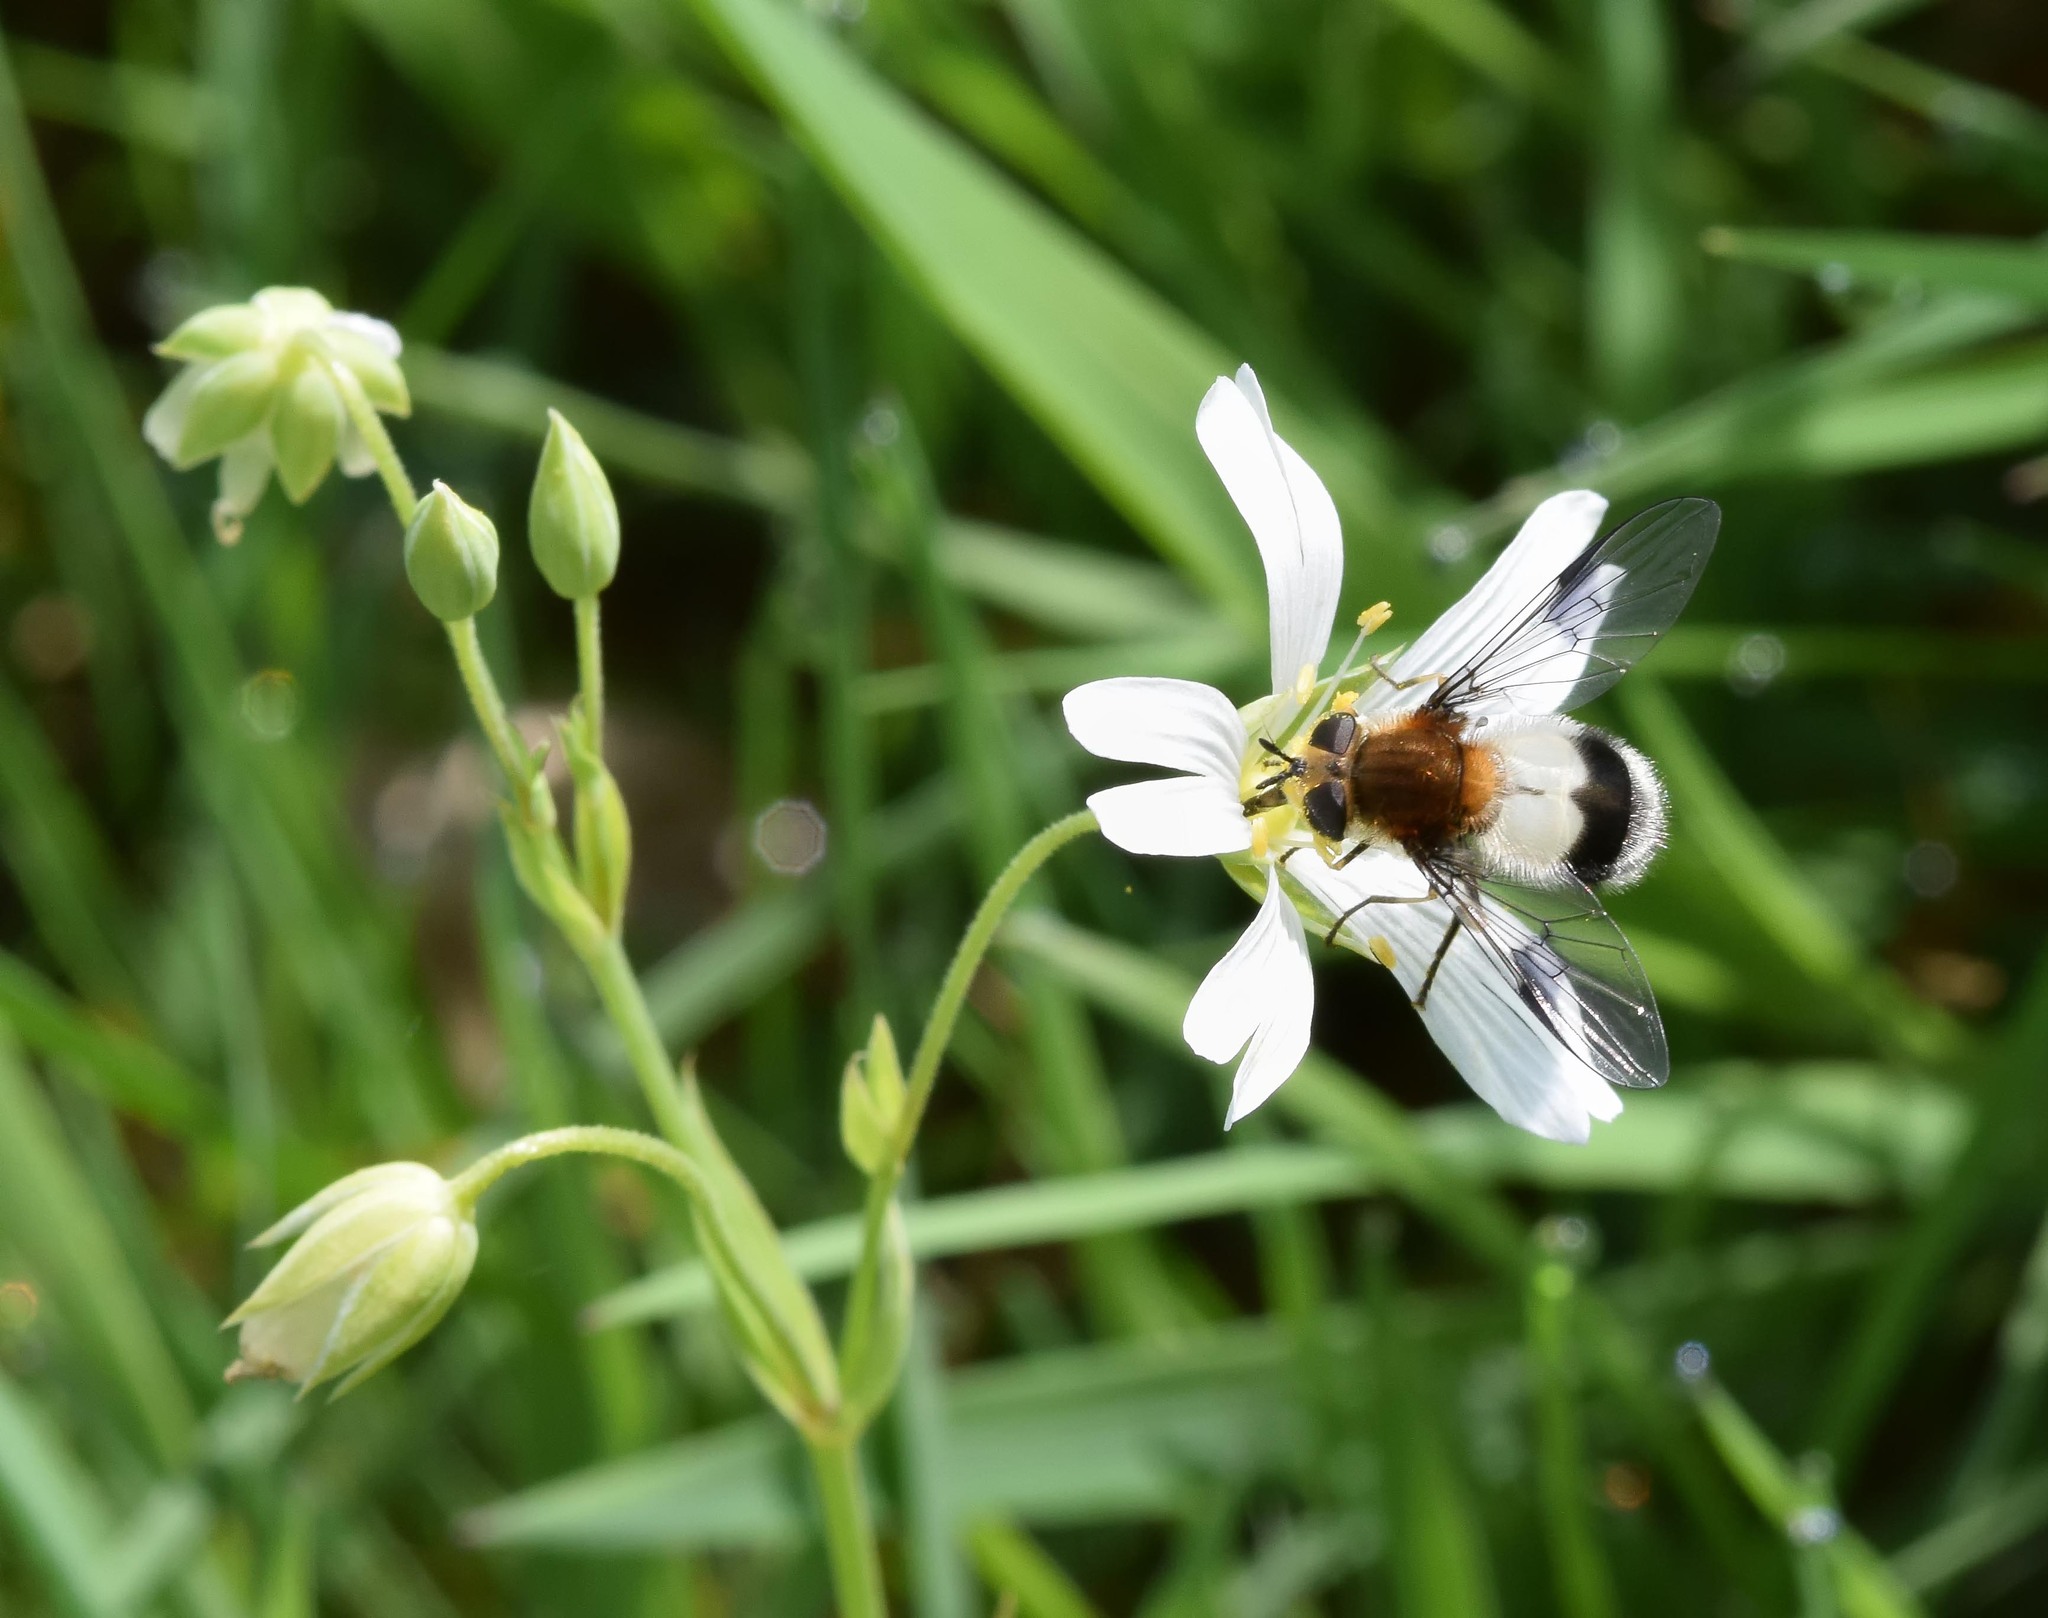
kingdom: Animalia
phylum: Arthropoda
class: Insecta
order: Diptera
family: Syrphidae
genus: Leucozona
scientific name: Leucozona lucorum
